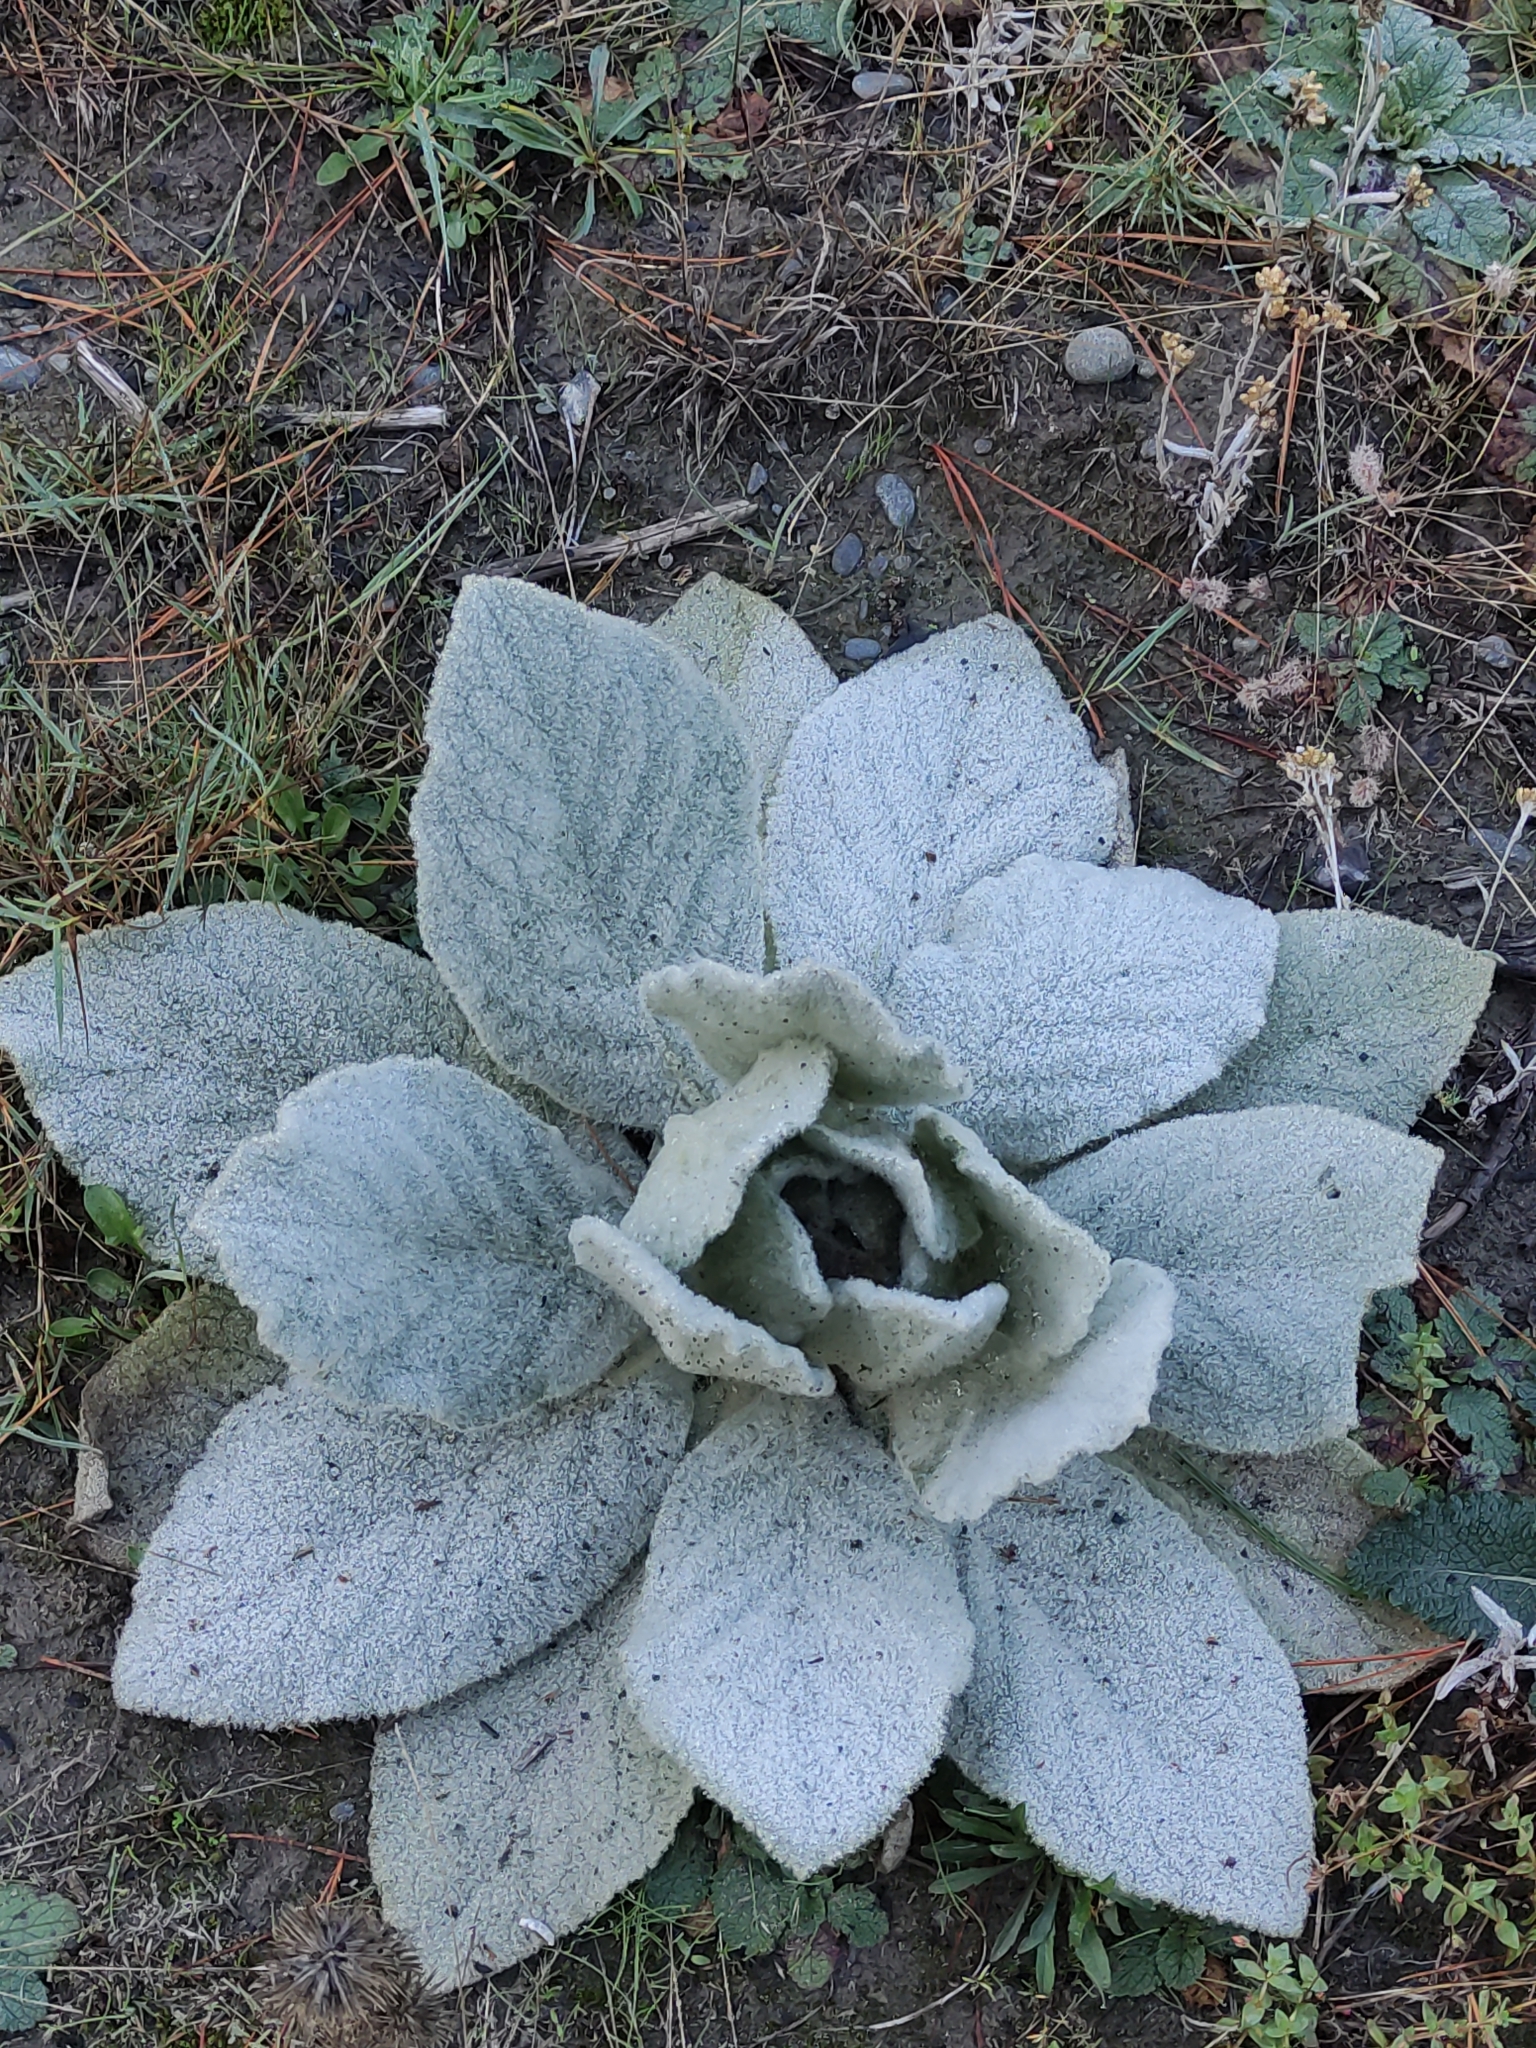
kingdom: Plantae
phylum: Tracheophyta
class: Magnoliopsida
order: Lamiales
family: Scrophulariaceae
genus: Verbascum
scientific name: Verbascum thapsus
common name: Common mullein
